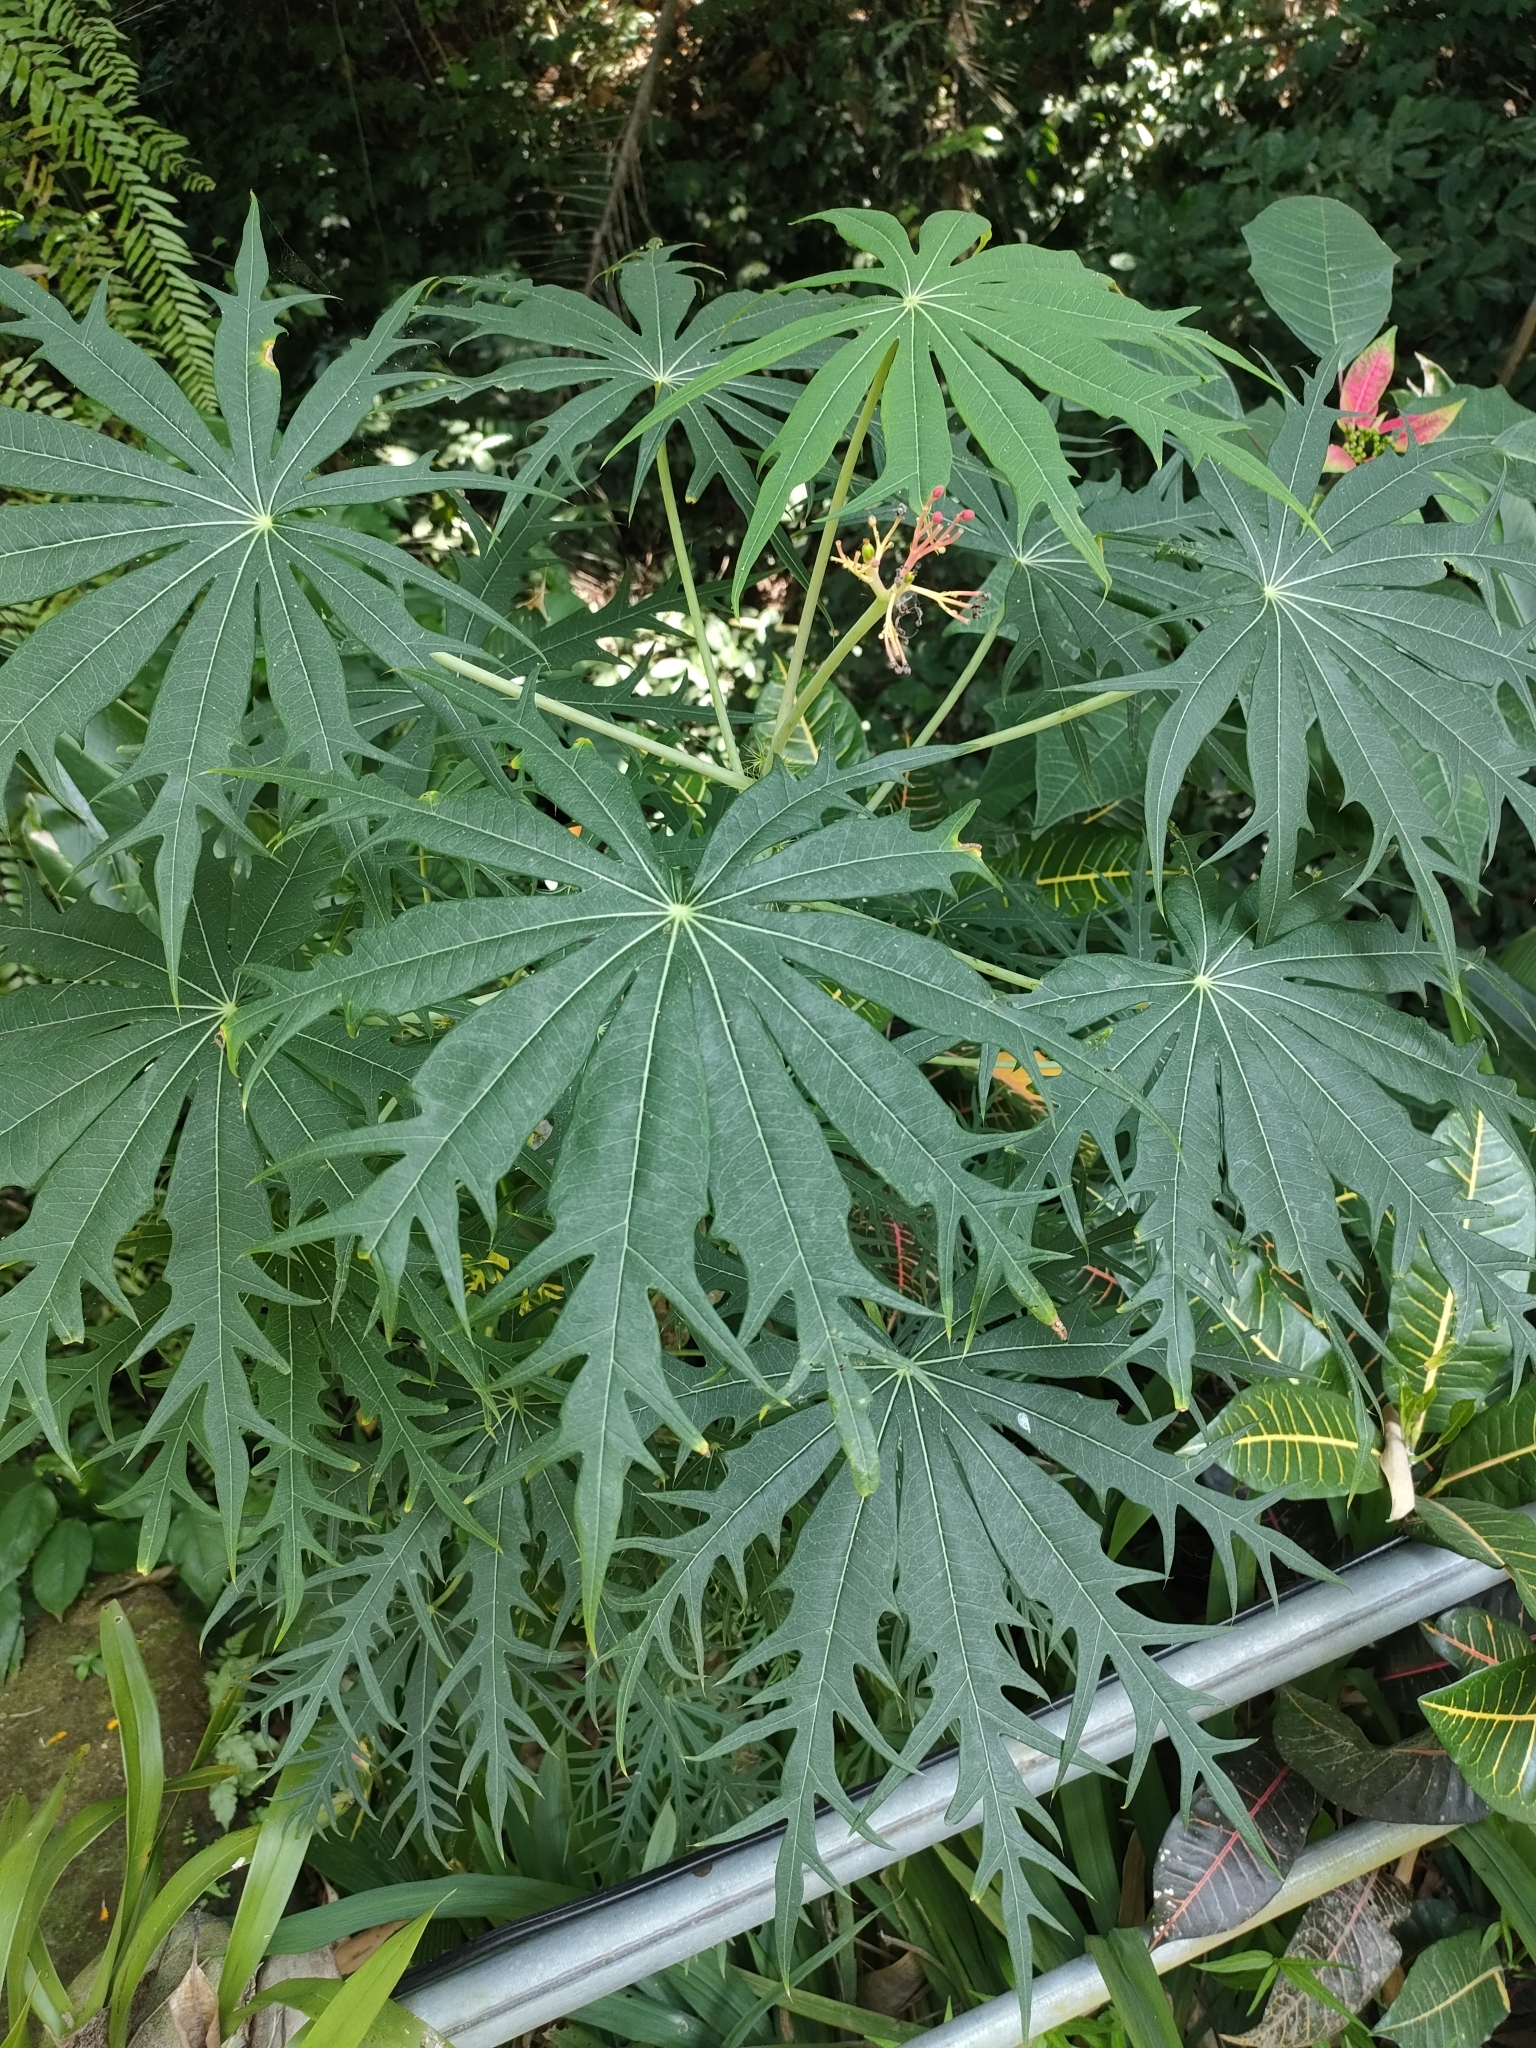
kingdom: Plantae
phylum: Tracheophyta
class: Magnoliopsida
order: Malpighiales
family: Euphorbiaceae
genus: Jatropha
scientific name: Jatropha multifida
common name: Coralbush
